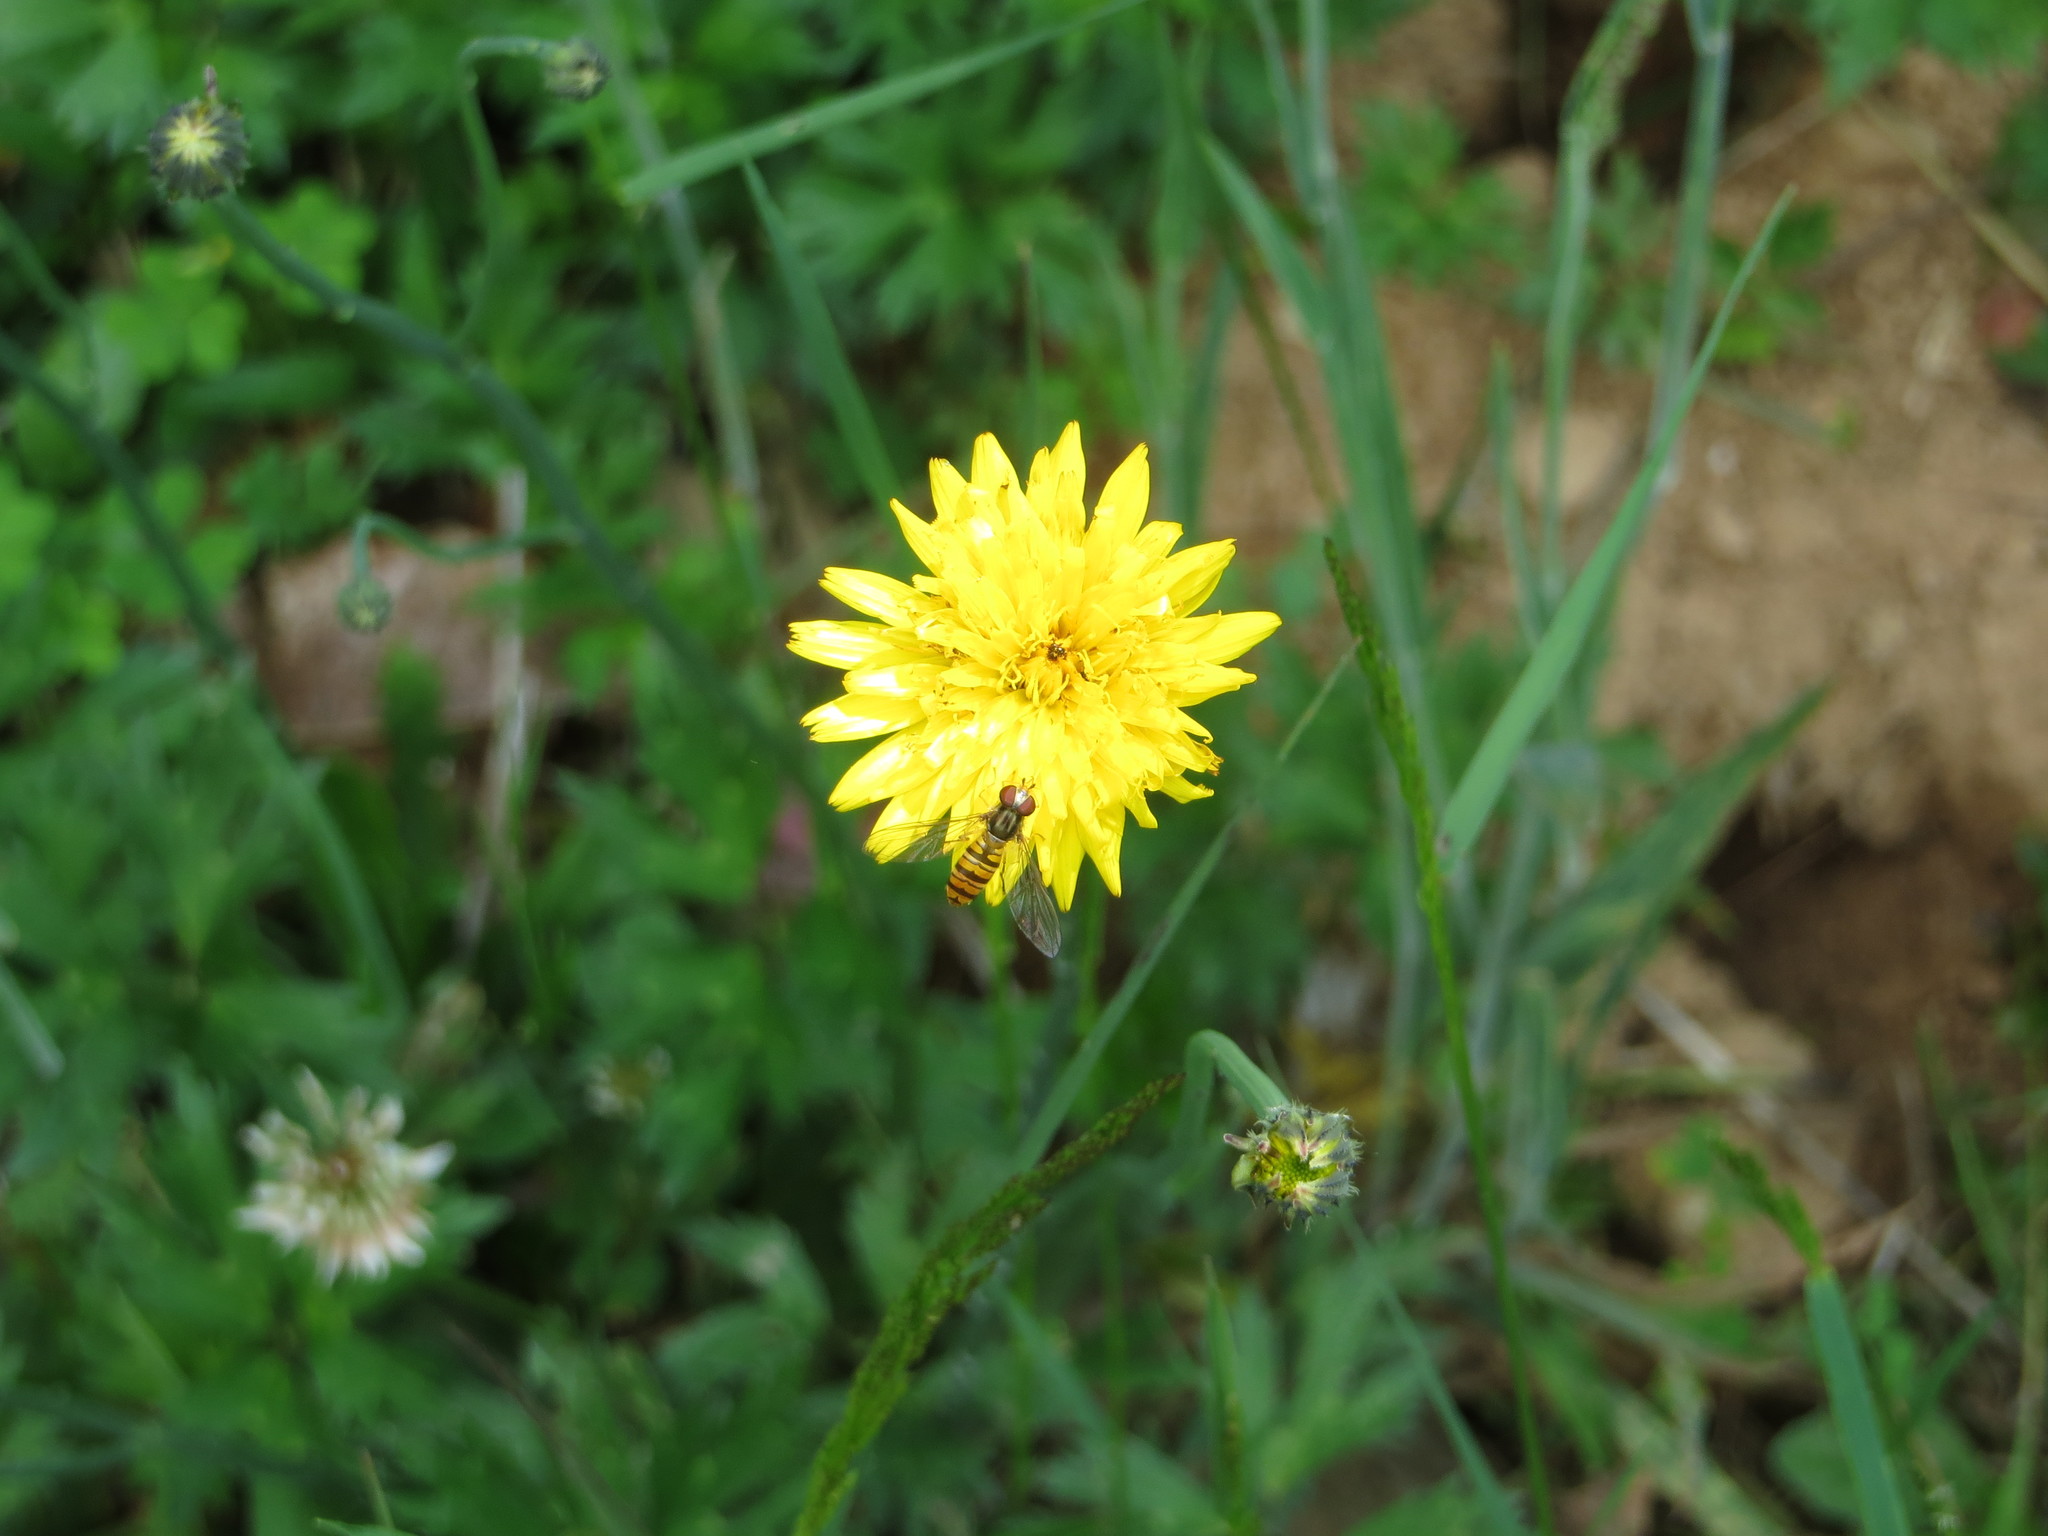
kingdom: Animalia
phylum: Arthropoda
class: Insecta
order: Diptera
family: Syrphidae
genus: Episyrphus
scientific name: Episyrphus balteatus
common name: Marmalade hoverfly
